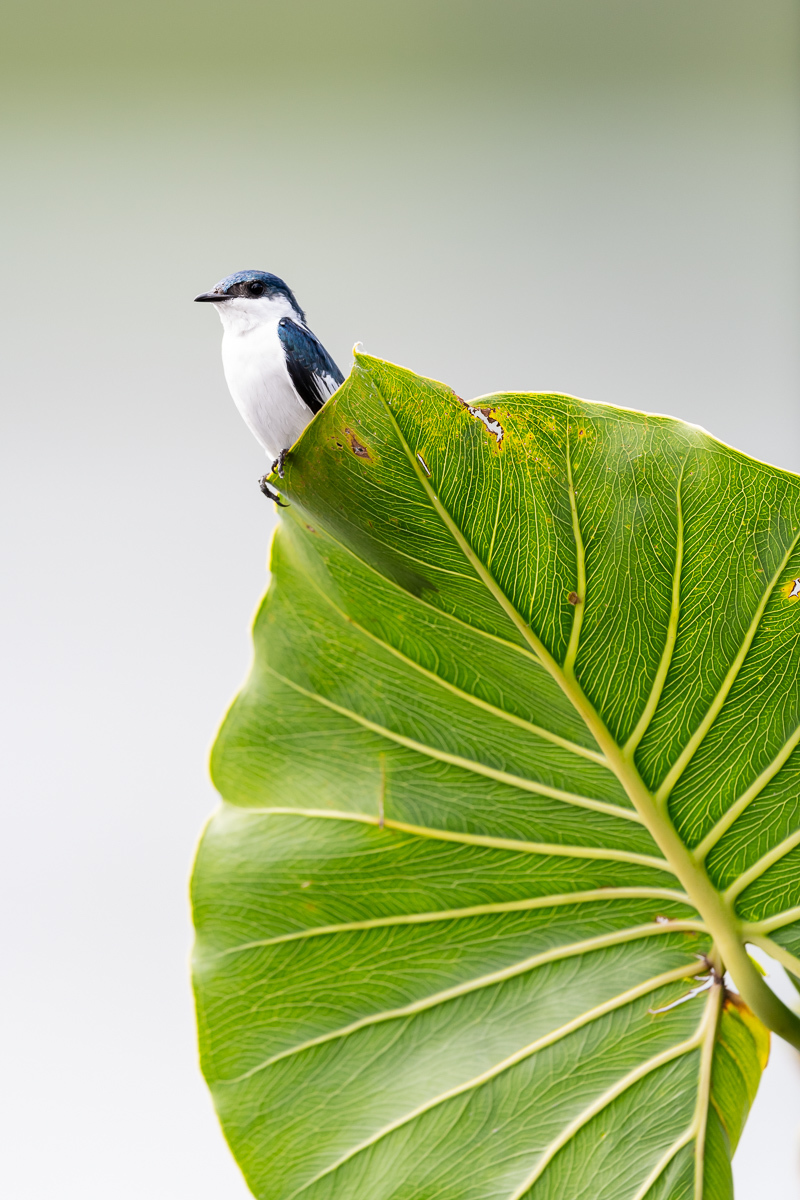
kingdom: Animalia
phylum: Chordata
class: Aves
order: Passeriformes
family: Hirundinidae
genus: Tachycineta
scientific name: Tachycineta albiventer
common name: White-winged swallow
